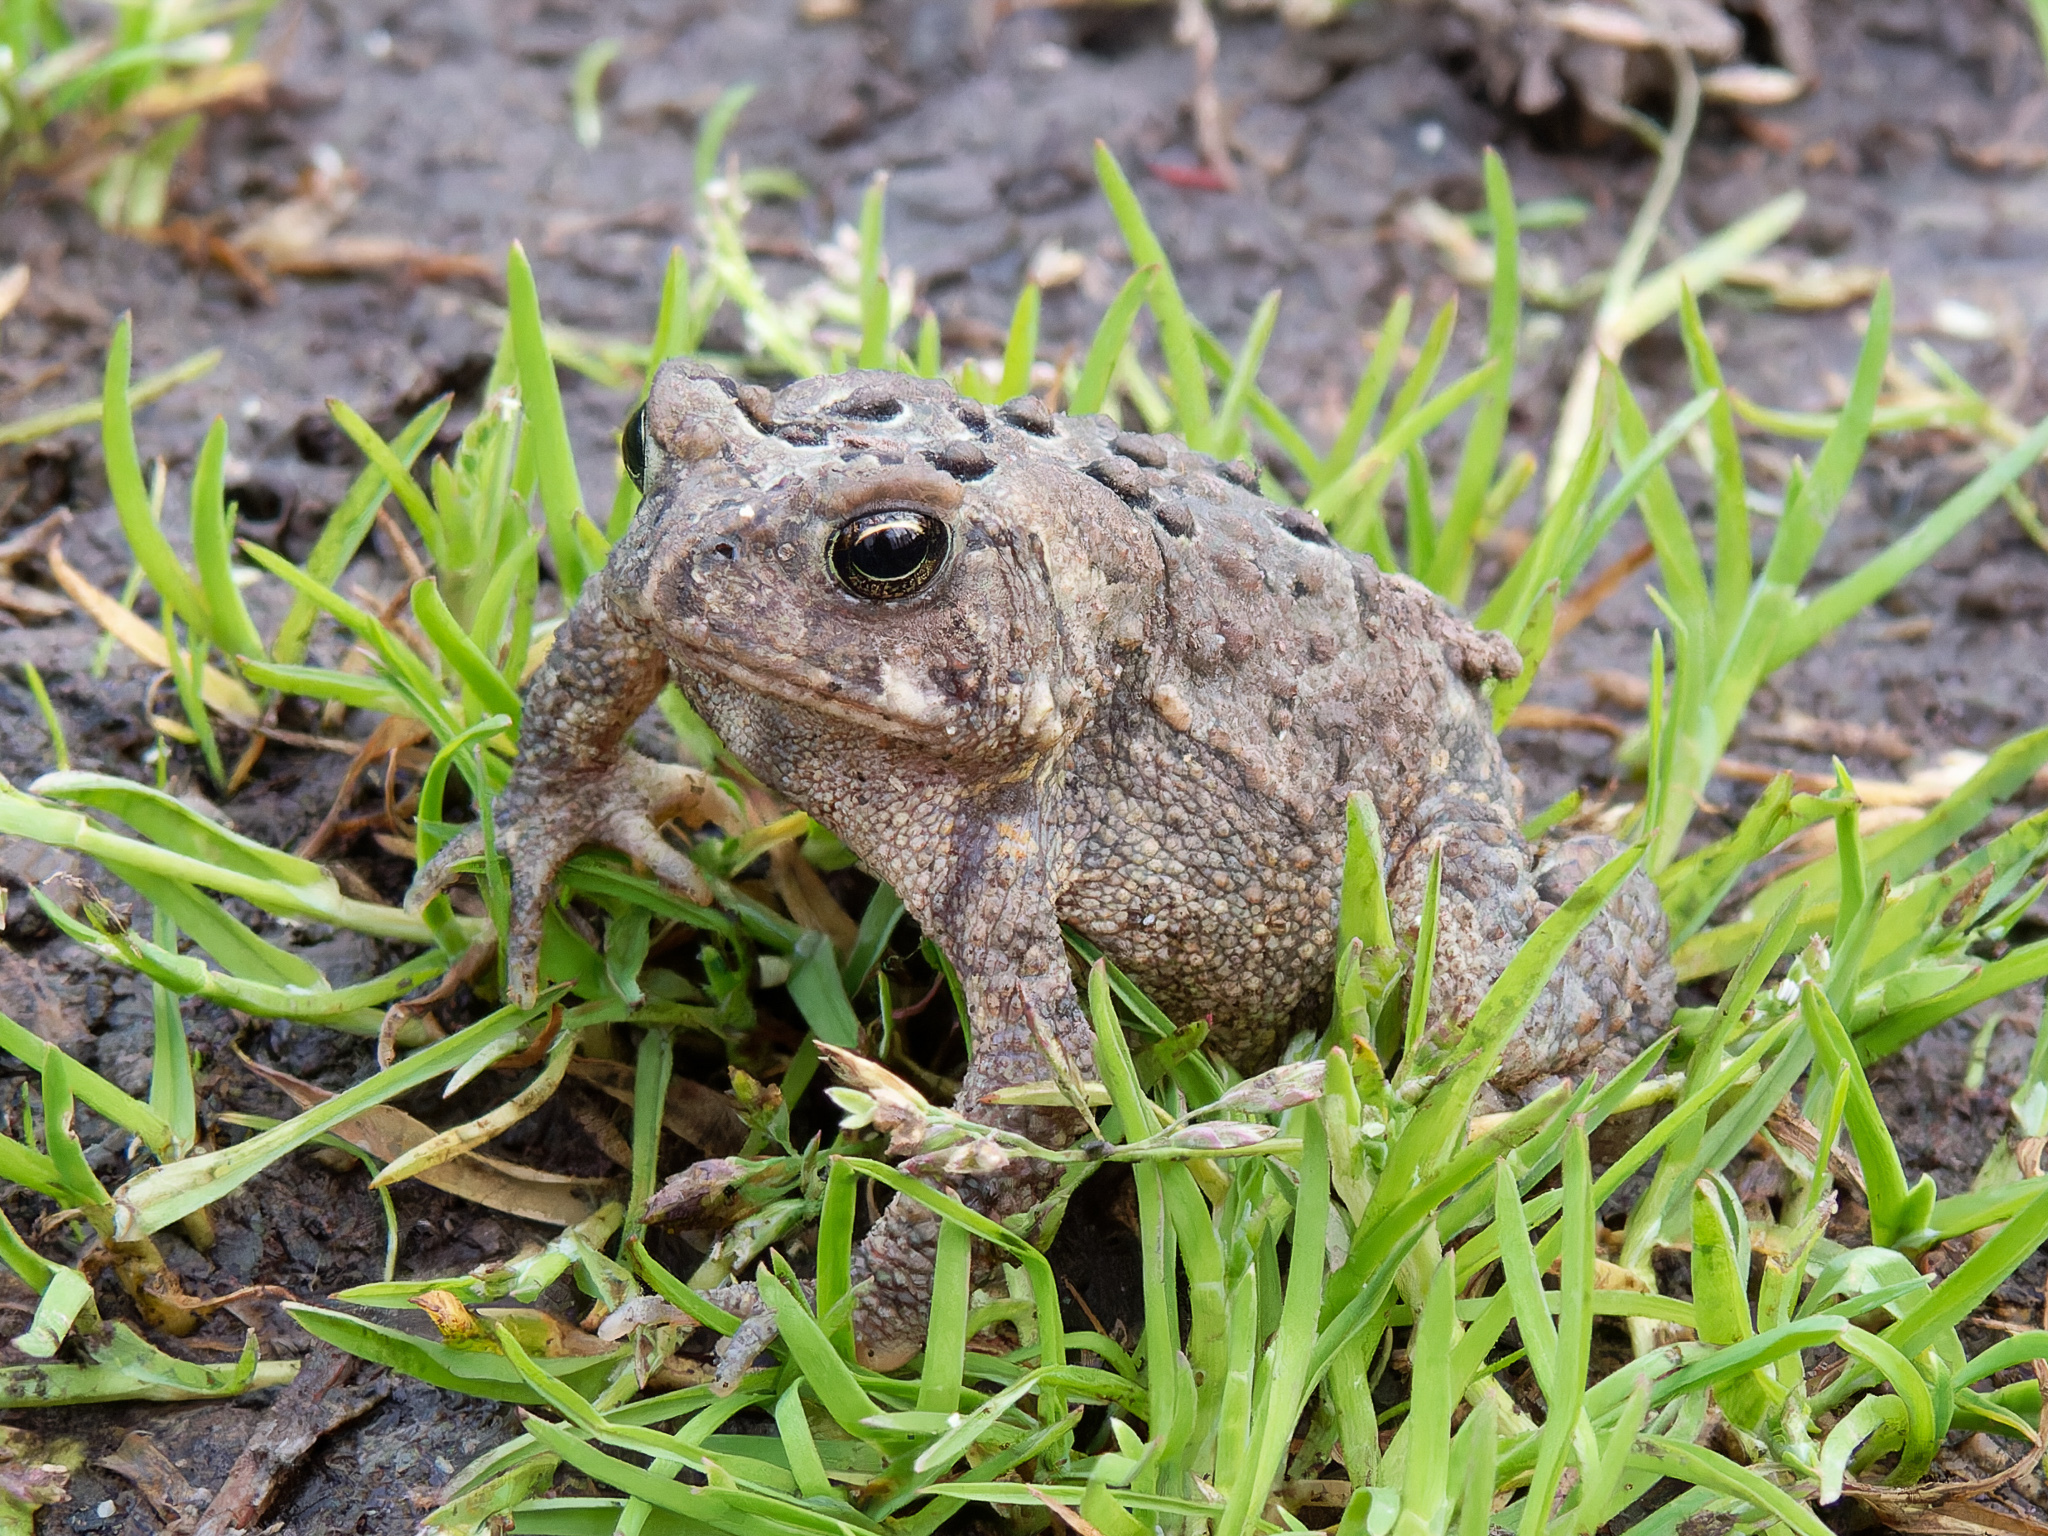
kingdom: Animalia
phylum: Chordata
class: Amphibia
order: Anura
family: Bufonidae
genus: Anaxyrus
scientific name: Anaxyrus americanus
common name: American toad
